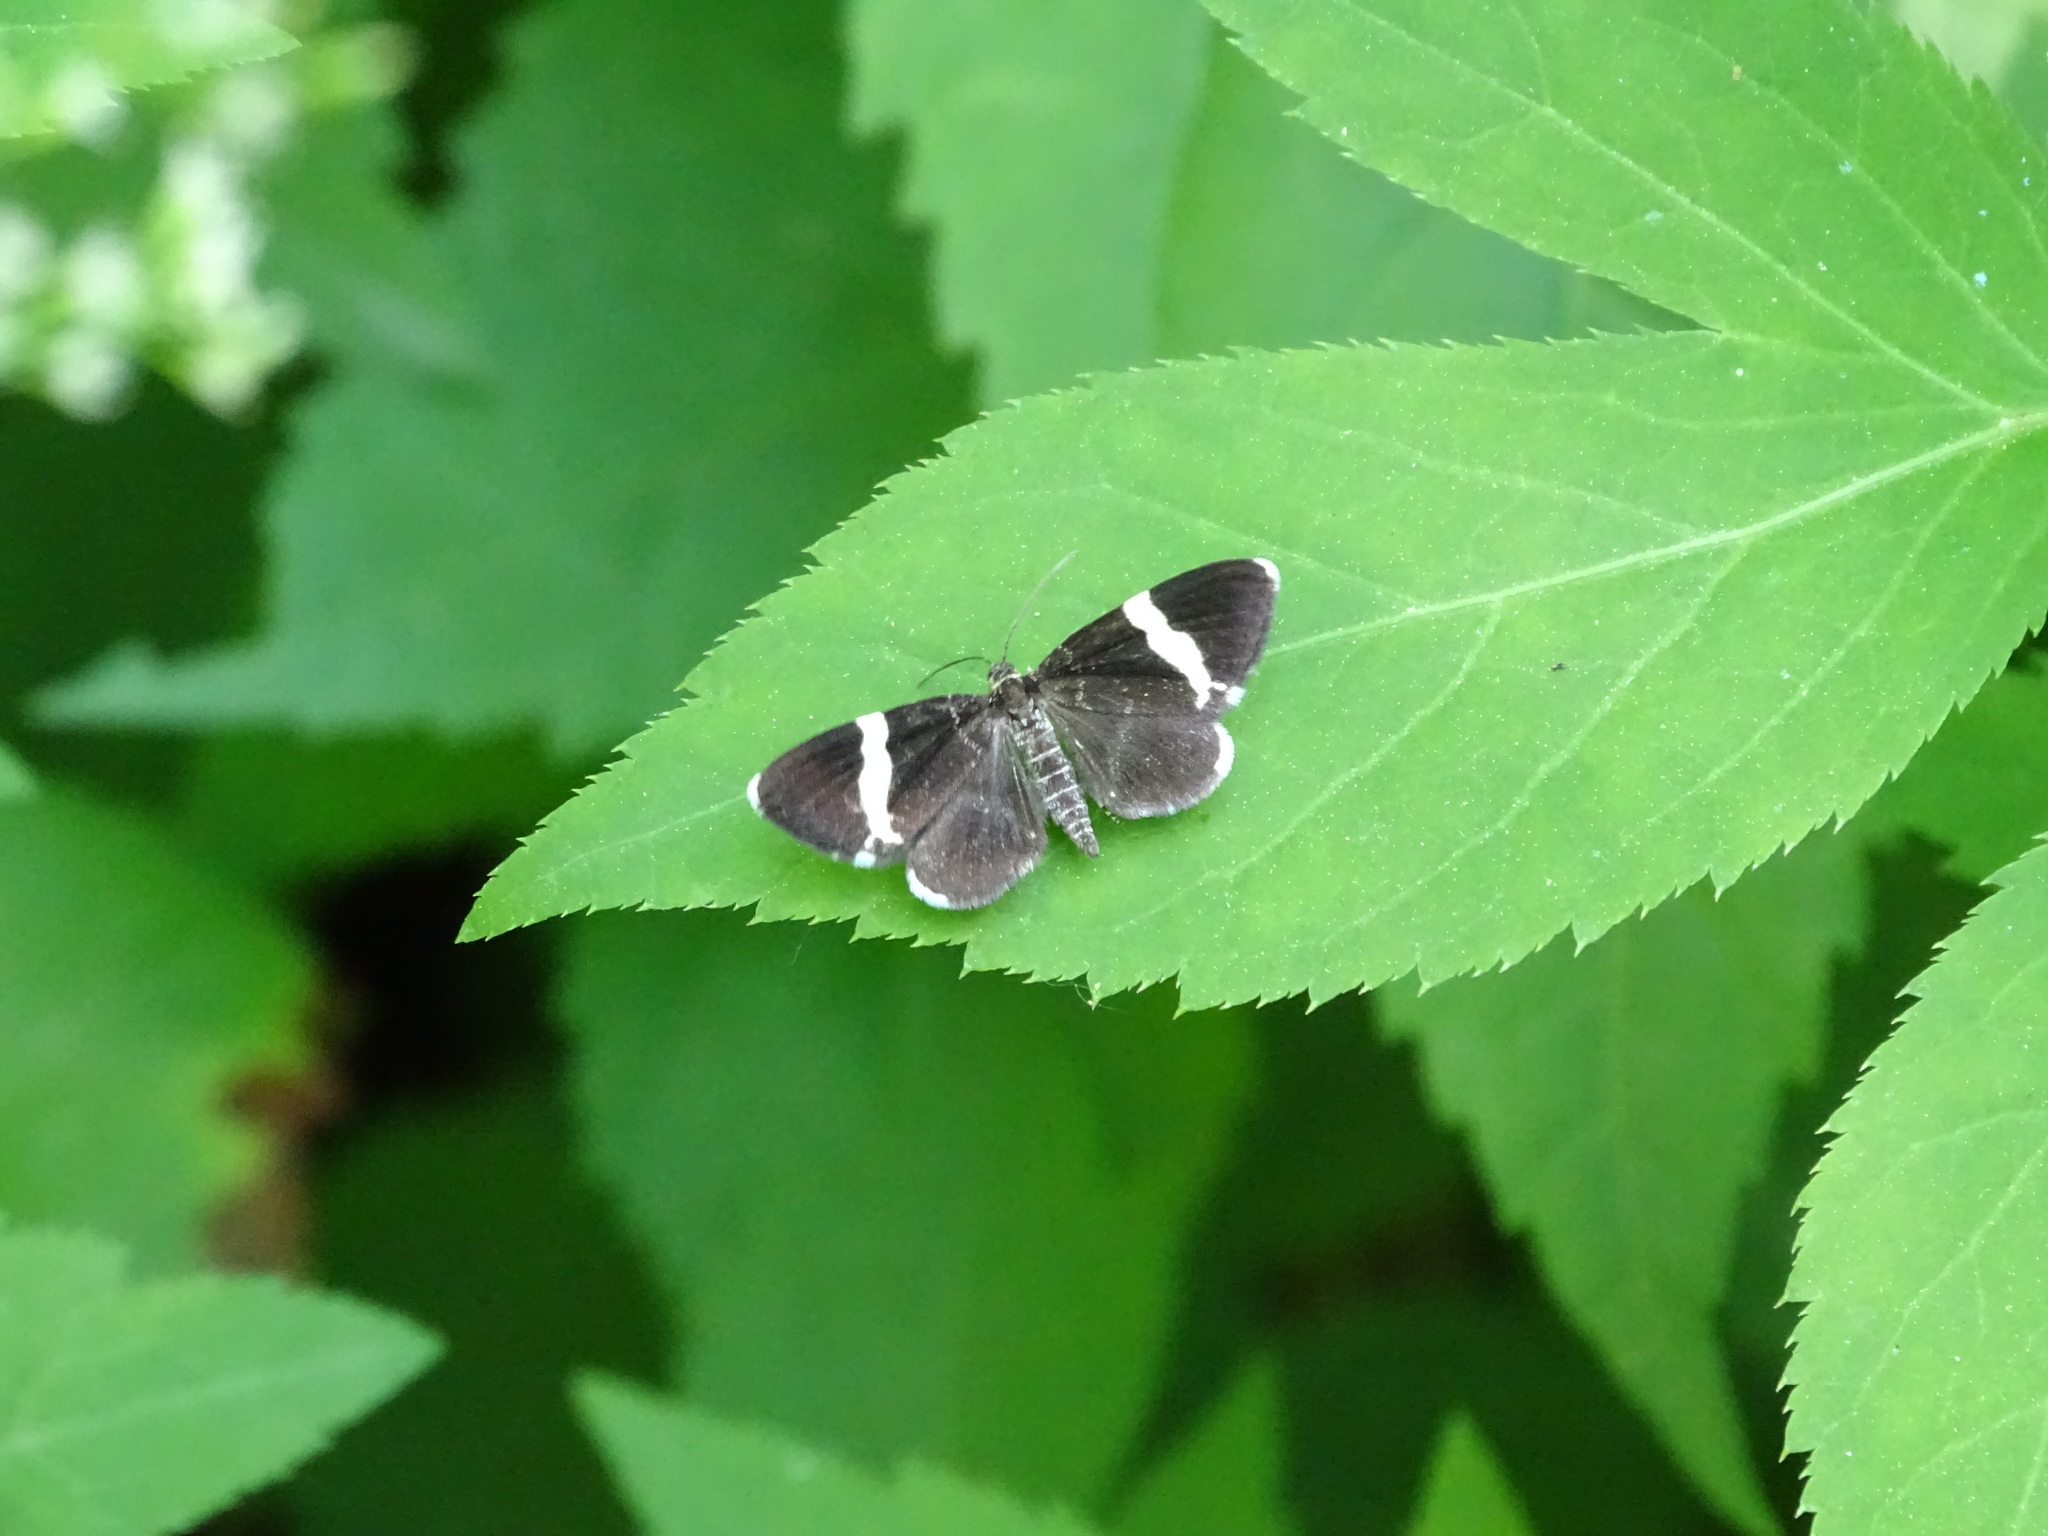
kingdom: Animalia
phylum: Arthropoda
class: Insecta
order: Lepidoptera
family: Geometridae
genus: Trichodezia
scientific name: Trichodezia albovittata
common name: White striped black
